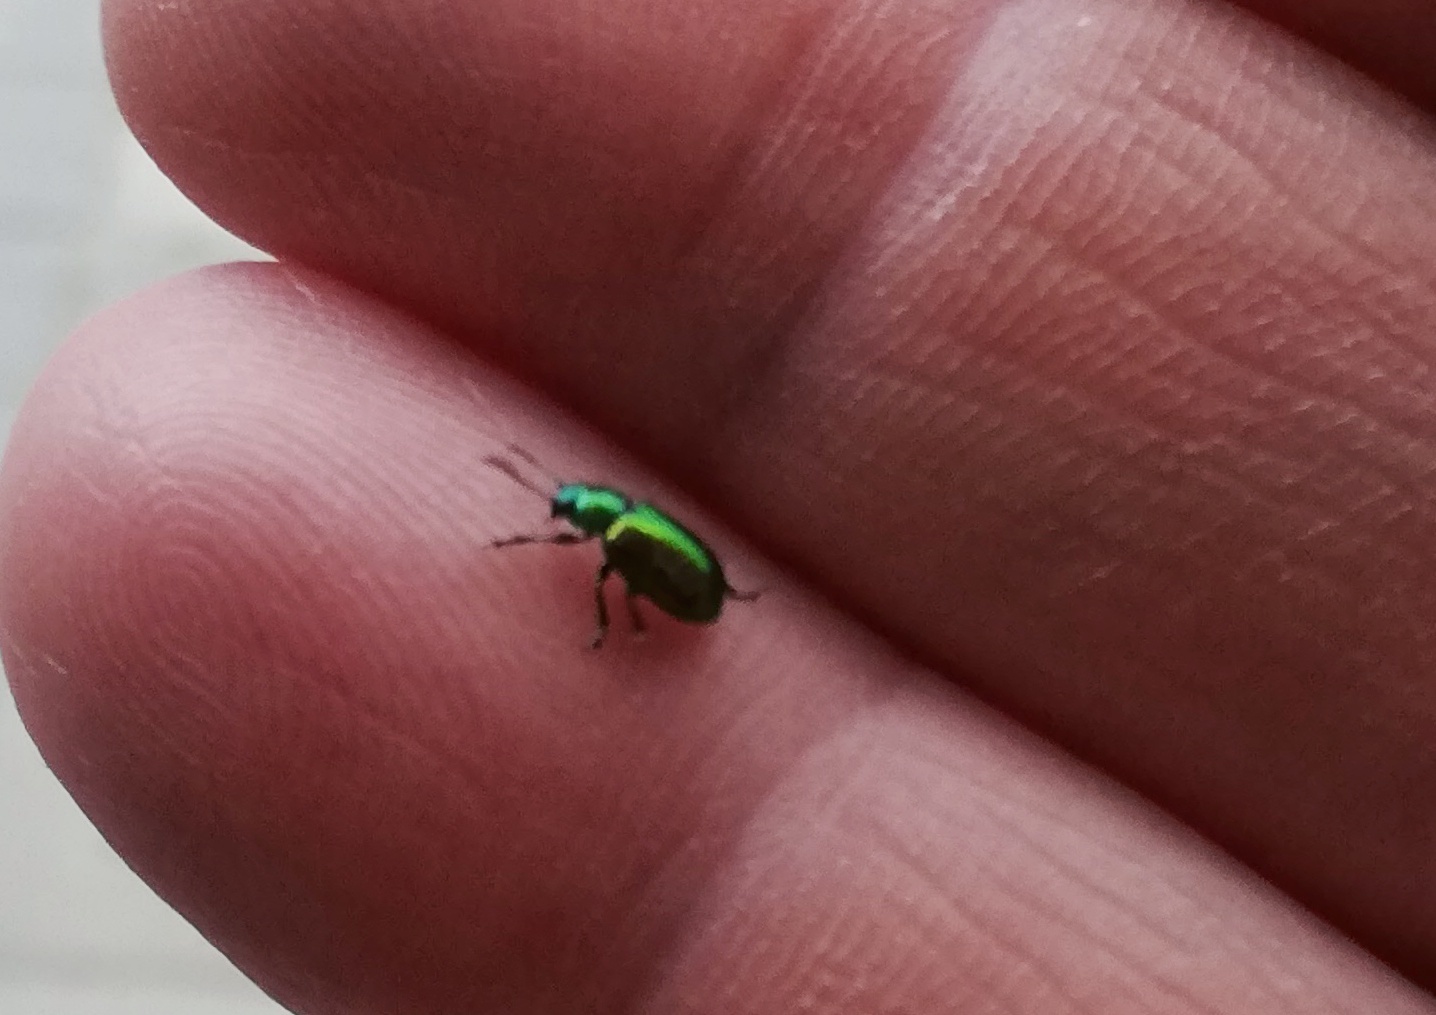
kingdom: Animalia
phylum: Arthropoda
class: Insecta
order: Coleoptera
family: Chrysomelidae
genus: Gastrophysa
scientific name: Gastrophysa viridula
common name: Green dock beetle
